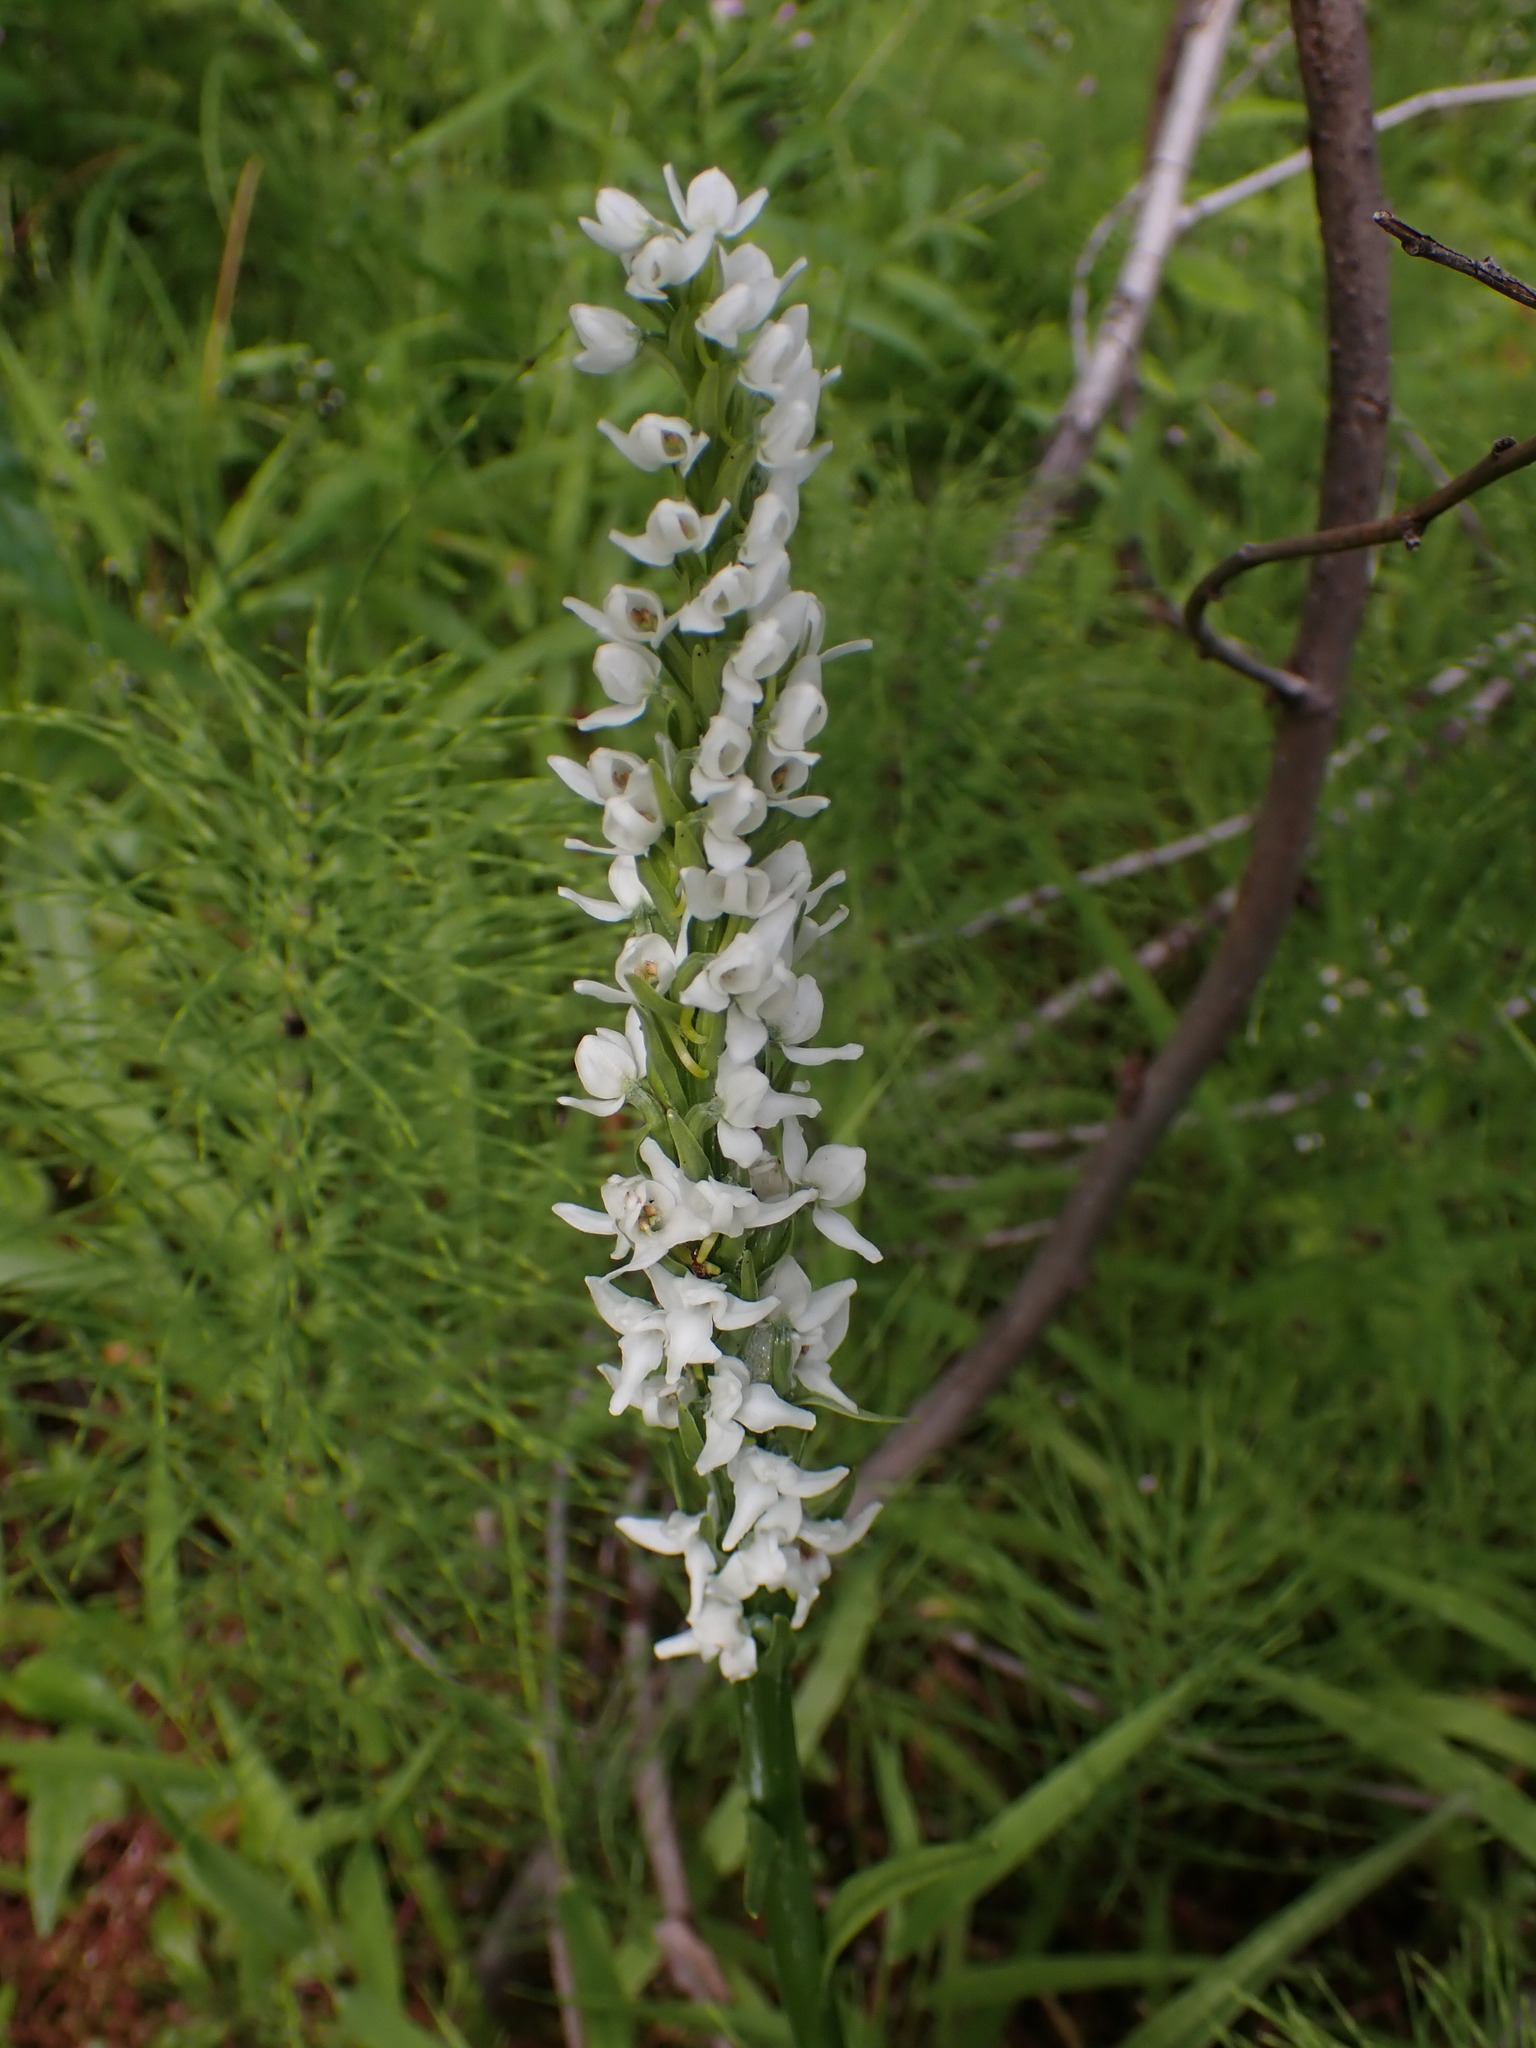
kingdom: Plantae
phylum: Tracheophyta
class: Liliopsida
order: Asparagales
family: Orchidaceae
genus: Platanthera
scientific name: Platanthera dilatata
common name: Bog candles
